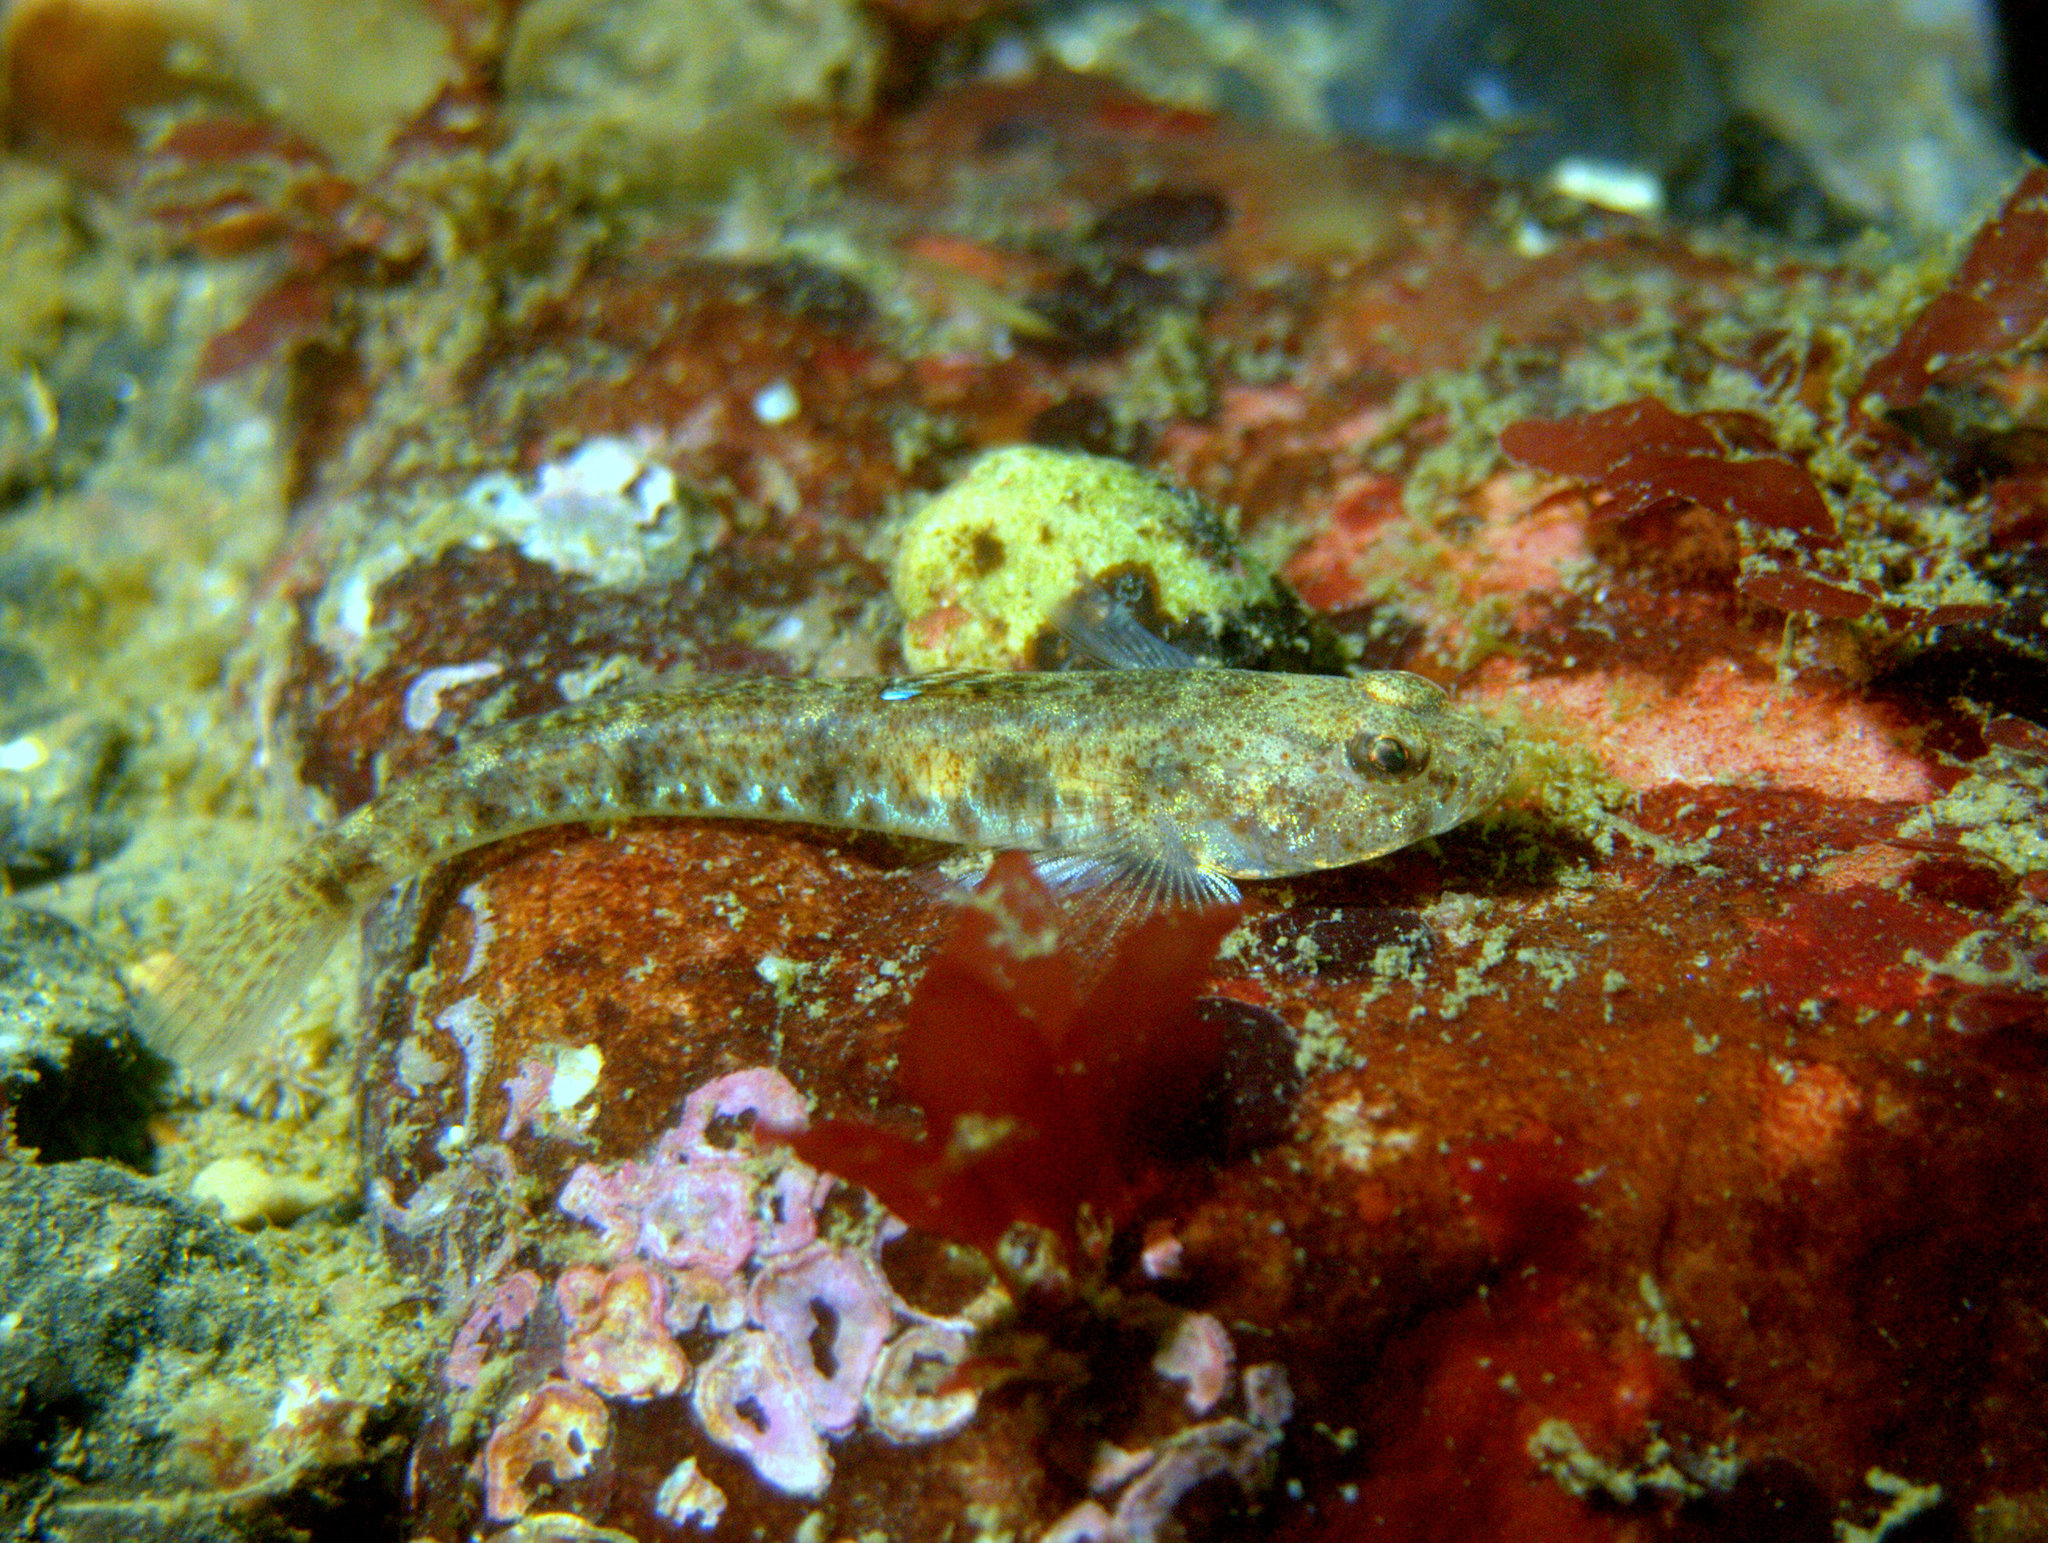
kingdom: Animalia
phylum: Chordata
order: Perciformes
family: Gobiidae
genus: Pomatoschistus
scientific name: Pomatoschistus
